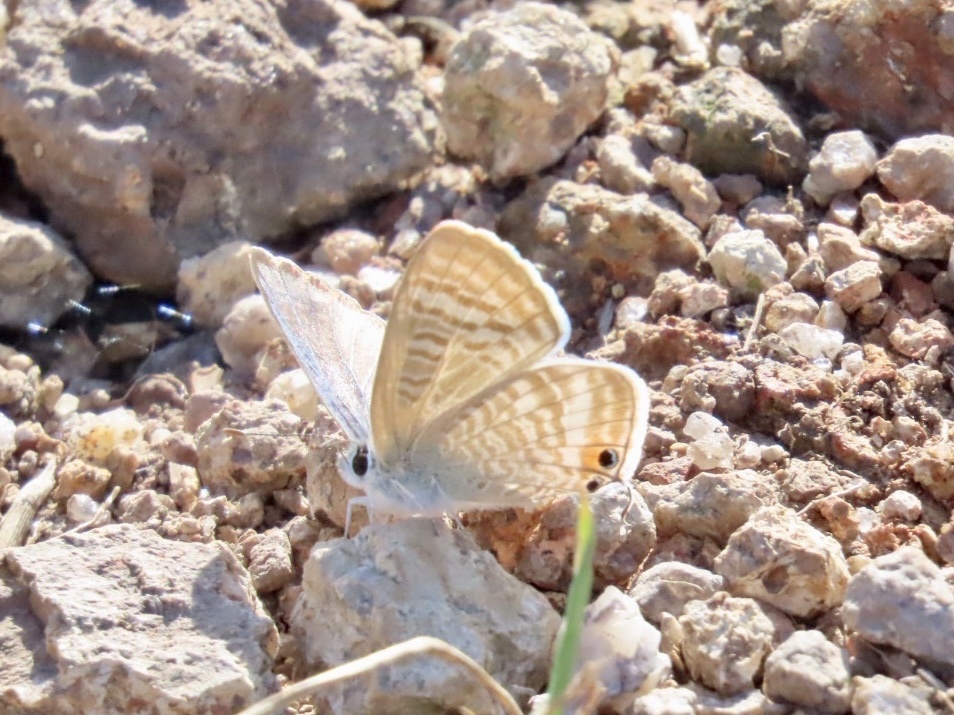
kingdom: Animalia
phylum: Arthropoda
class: Insecta
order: Lepidoptera
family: Lycaenidae
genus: Lampides
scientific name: Lampides boeticus
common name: Long-tailed blue
